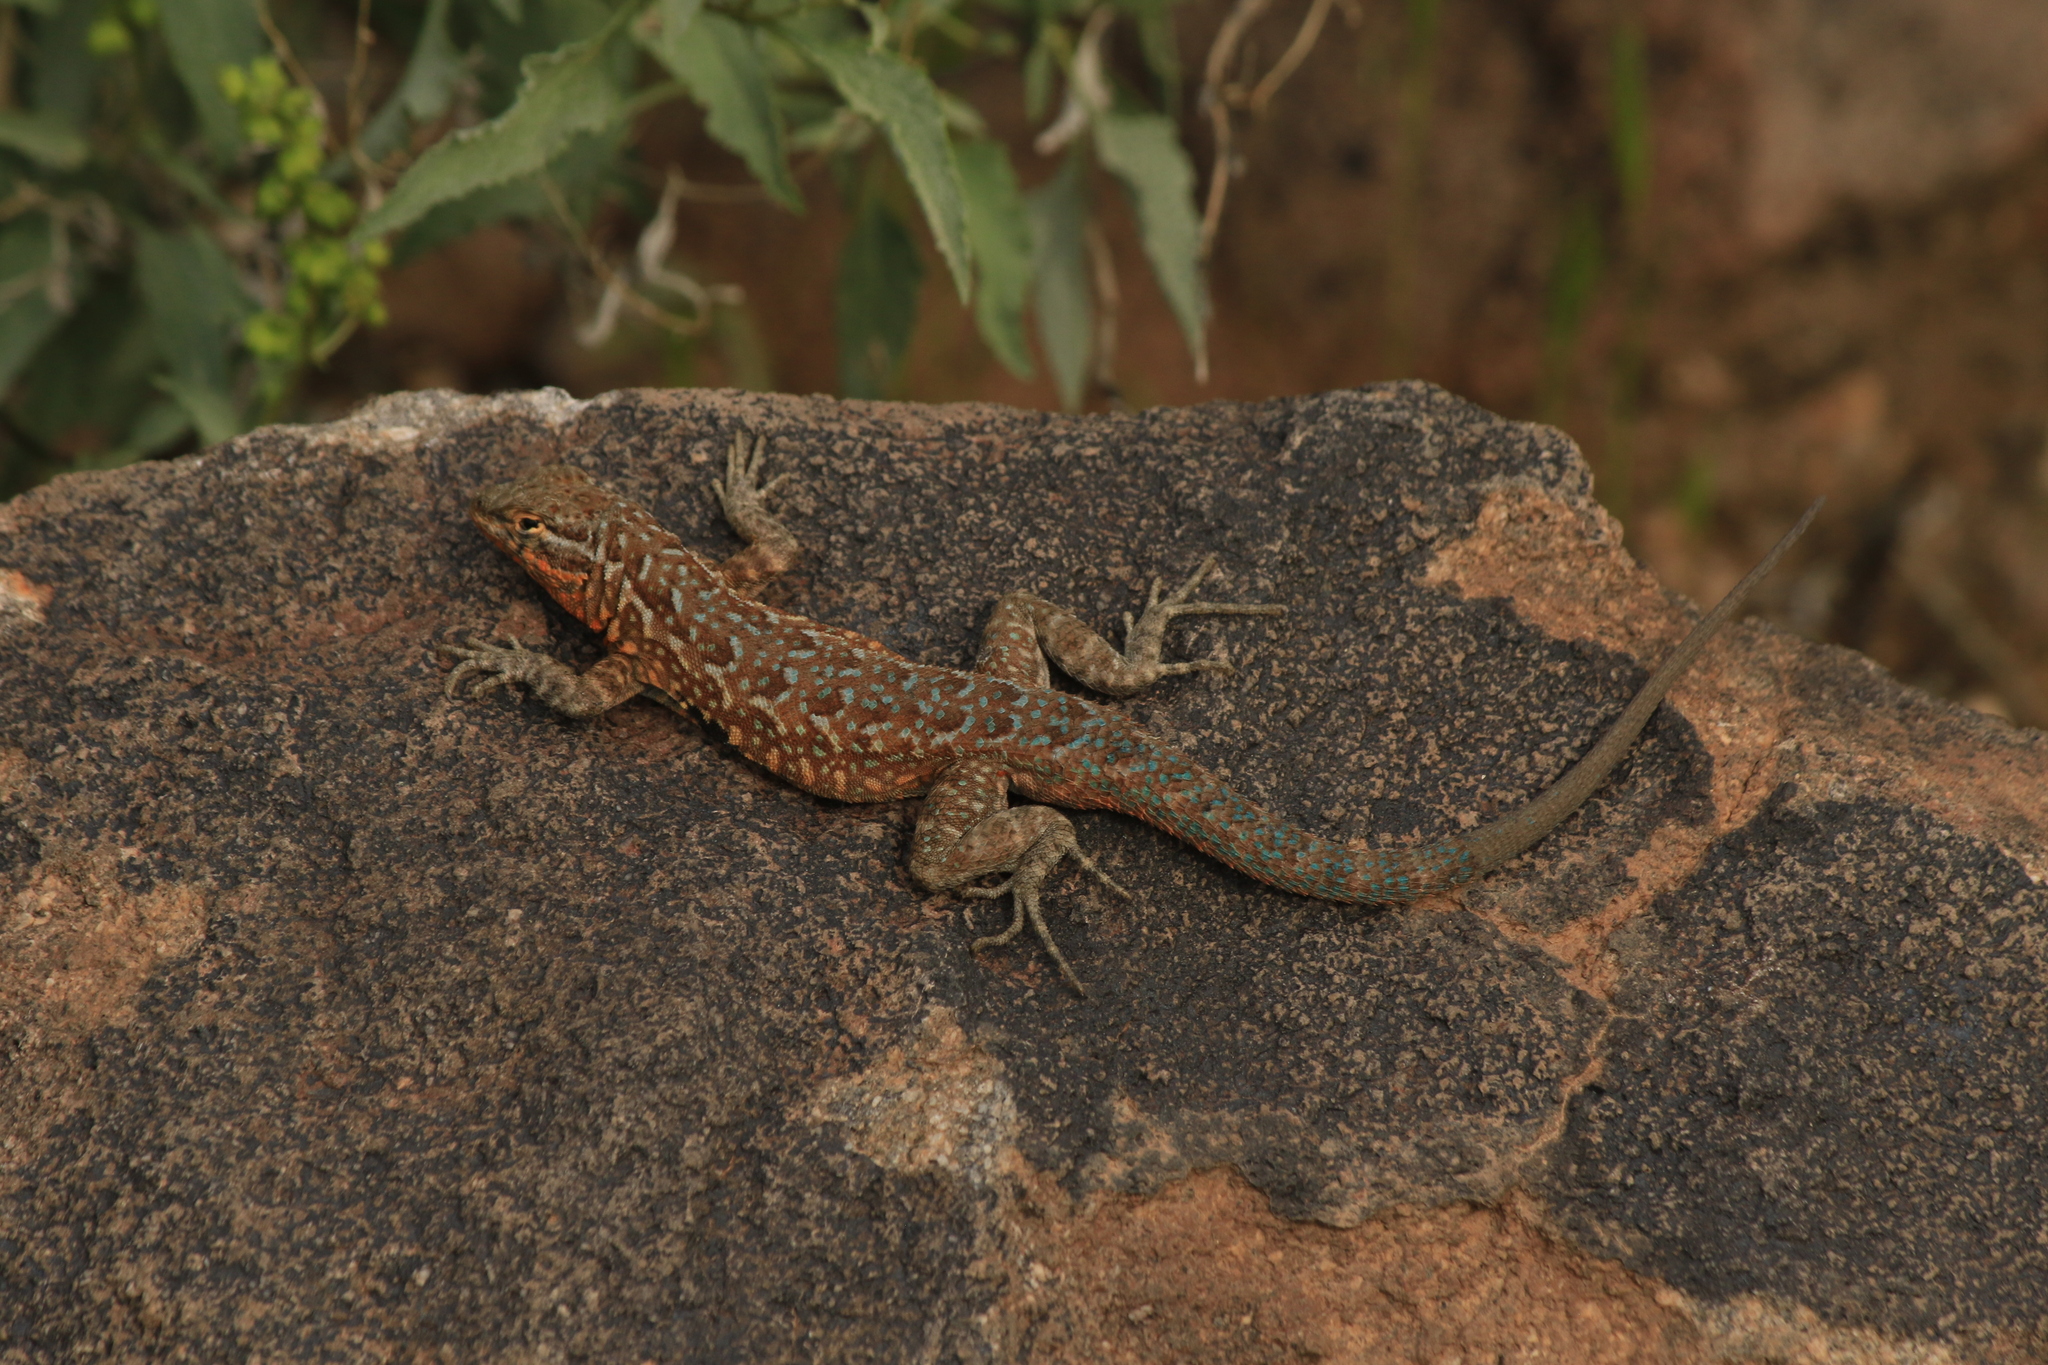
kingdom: Animalia
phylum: Chordata
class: Squamata
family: Phrynosomatidae
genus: Uta
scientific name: Uta stansburiana
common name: Side-blotched lizard
